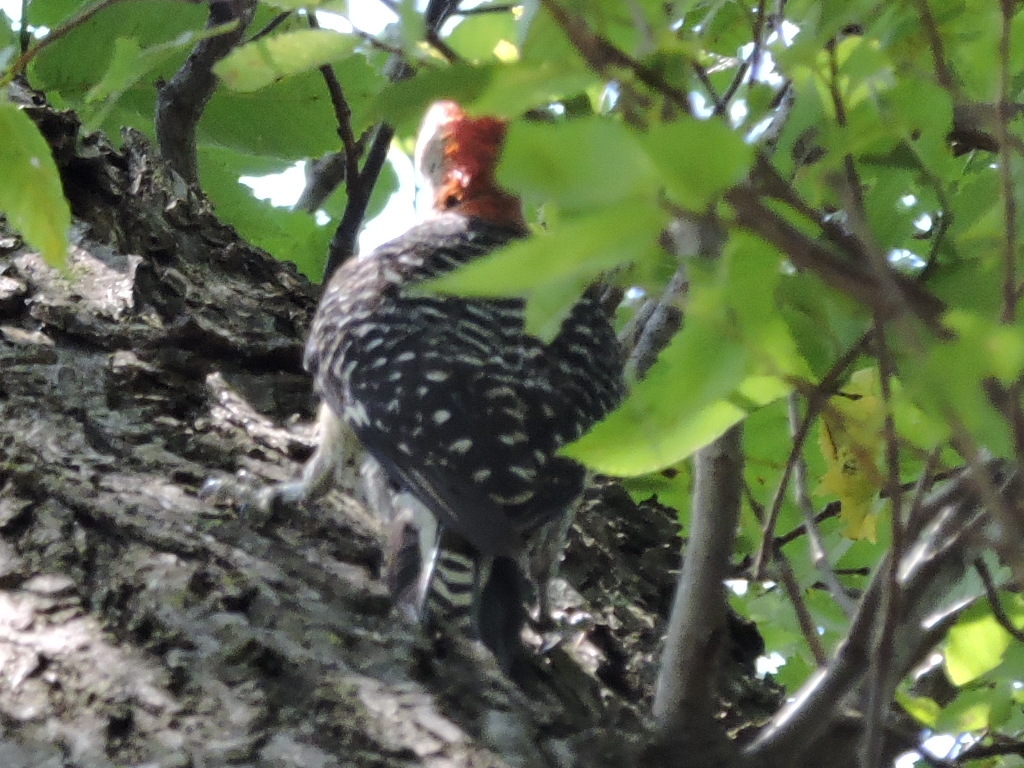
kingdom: Animalia
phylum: Chordata
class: Aves
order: Piciformes
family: Picidae
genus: Melanerpes
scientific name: Melanerpes carolinus
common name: Red-bellied woodpecker
